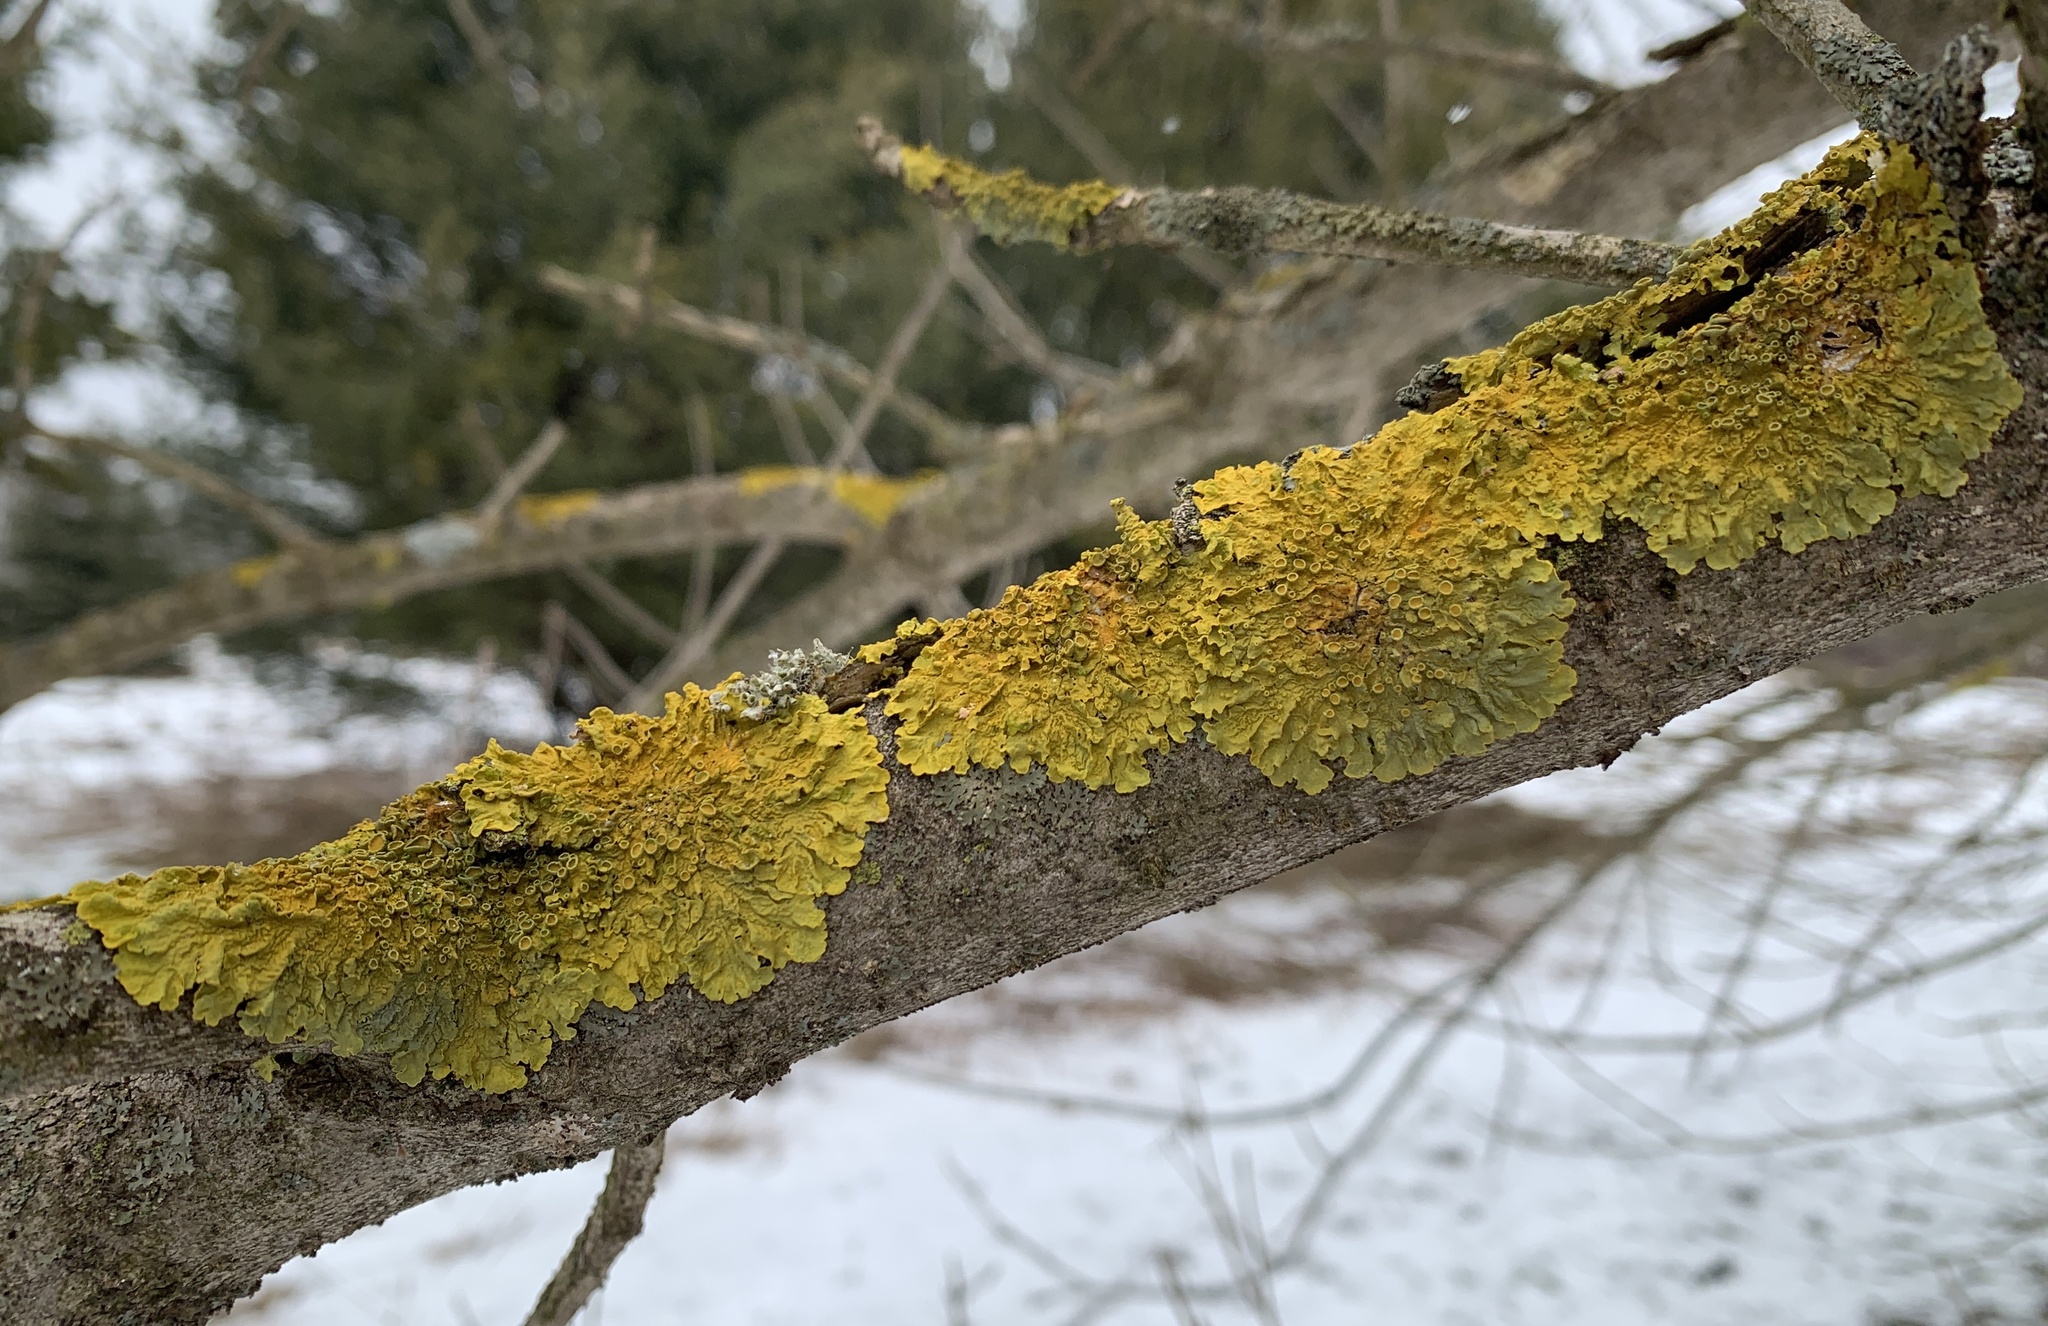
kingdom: Fungi
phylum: Ascomycota
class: Lecanoromycetes
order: Teloschistales
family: Teloschistaceae
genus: Xanthoria
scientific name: Xanthoria parietina
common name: Common orange lichen
